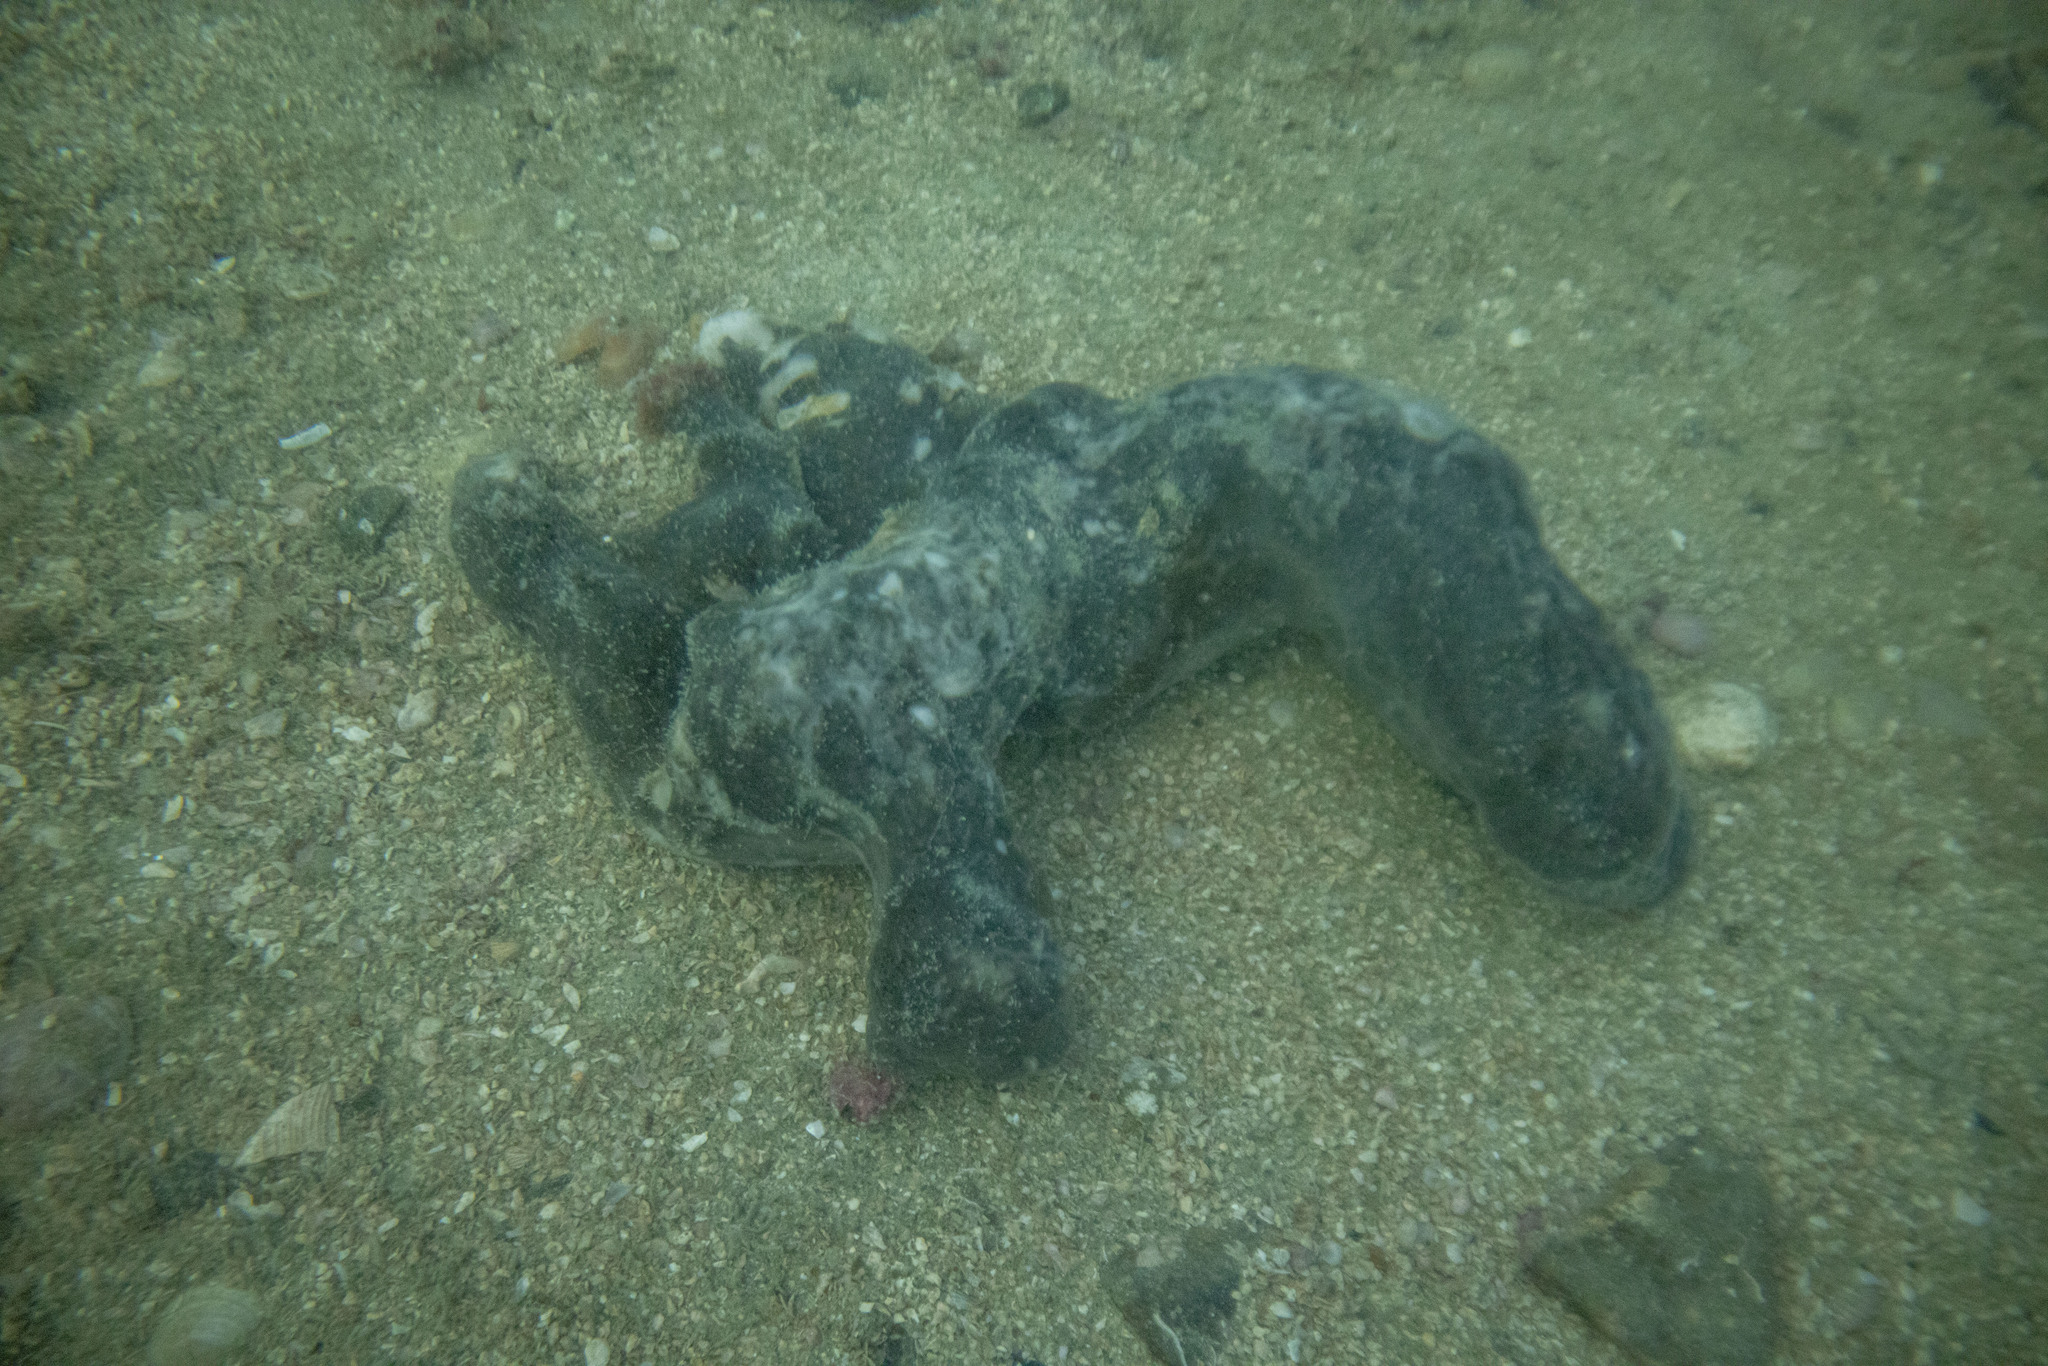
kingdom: Animalia
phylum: Porifera
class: Demospongiae
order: Tetractinellida
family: Ancorinidae
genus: Ecionemia
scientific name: Ecionemia alata
